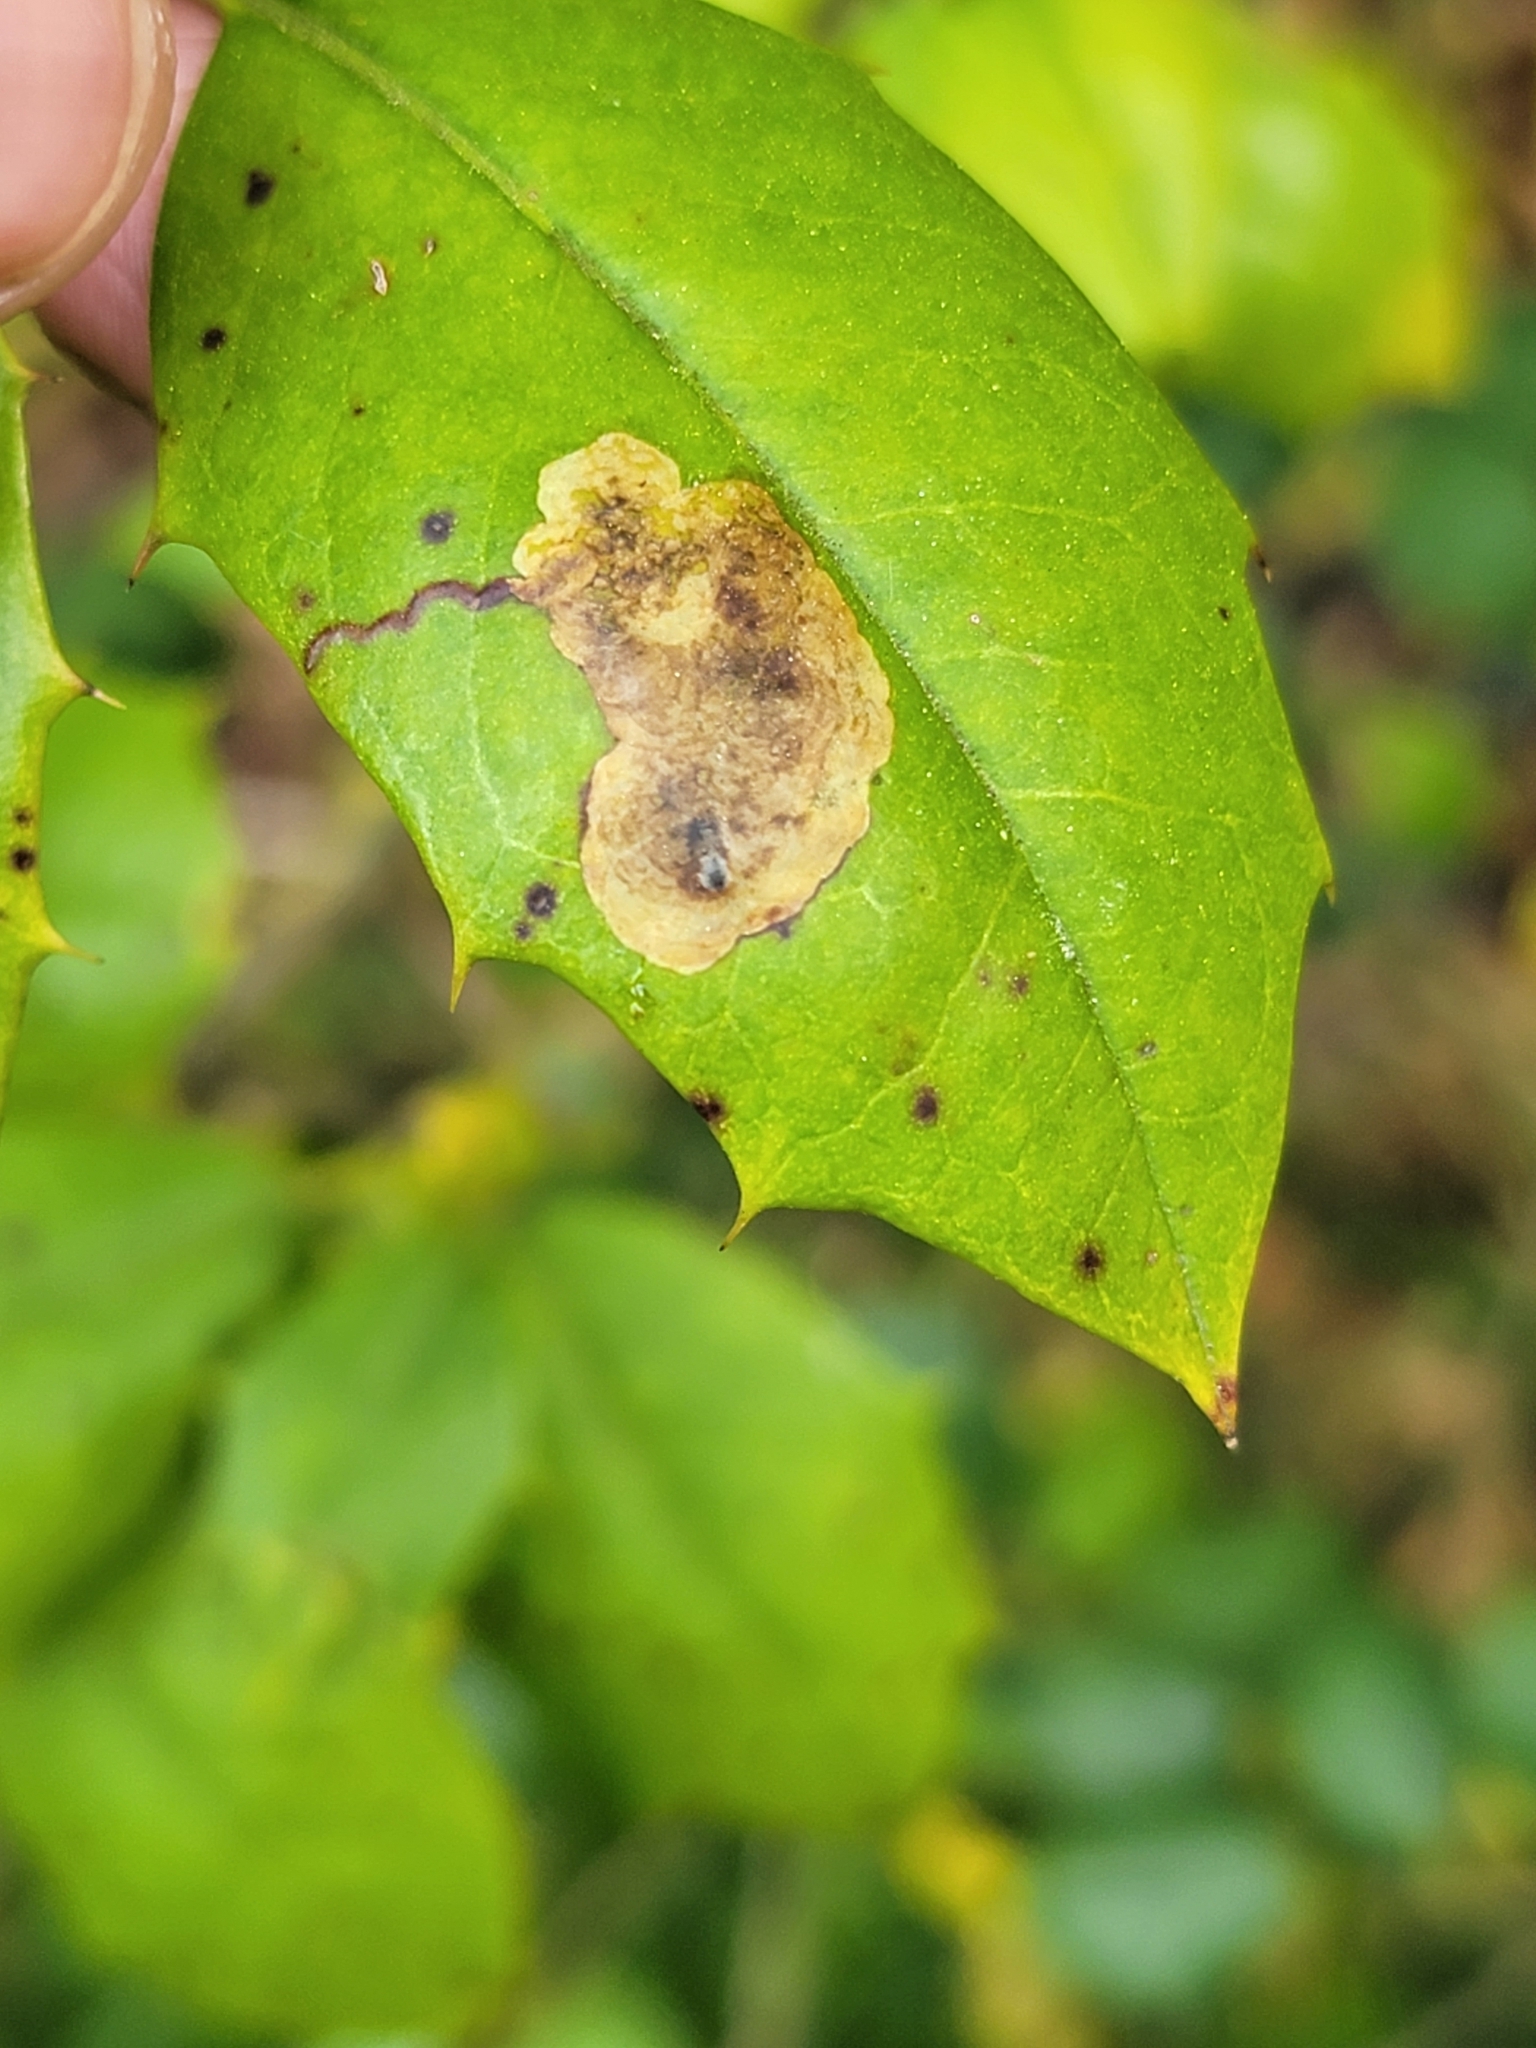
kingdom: Animalia
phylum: Arthropoda
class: Insecta
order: Diptera
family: Agromyzidae
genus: Phytomyza
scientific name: Phytomyza ilicicola
